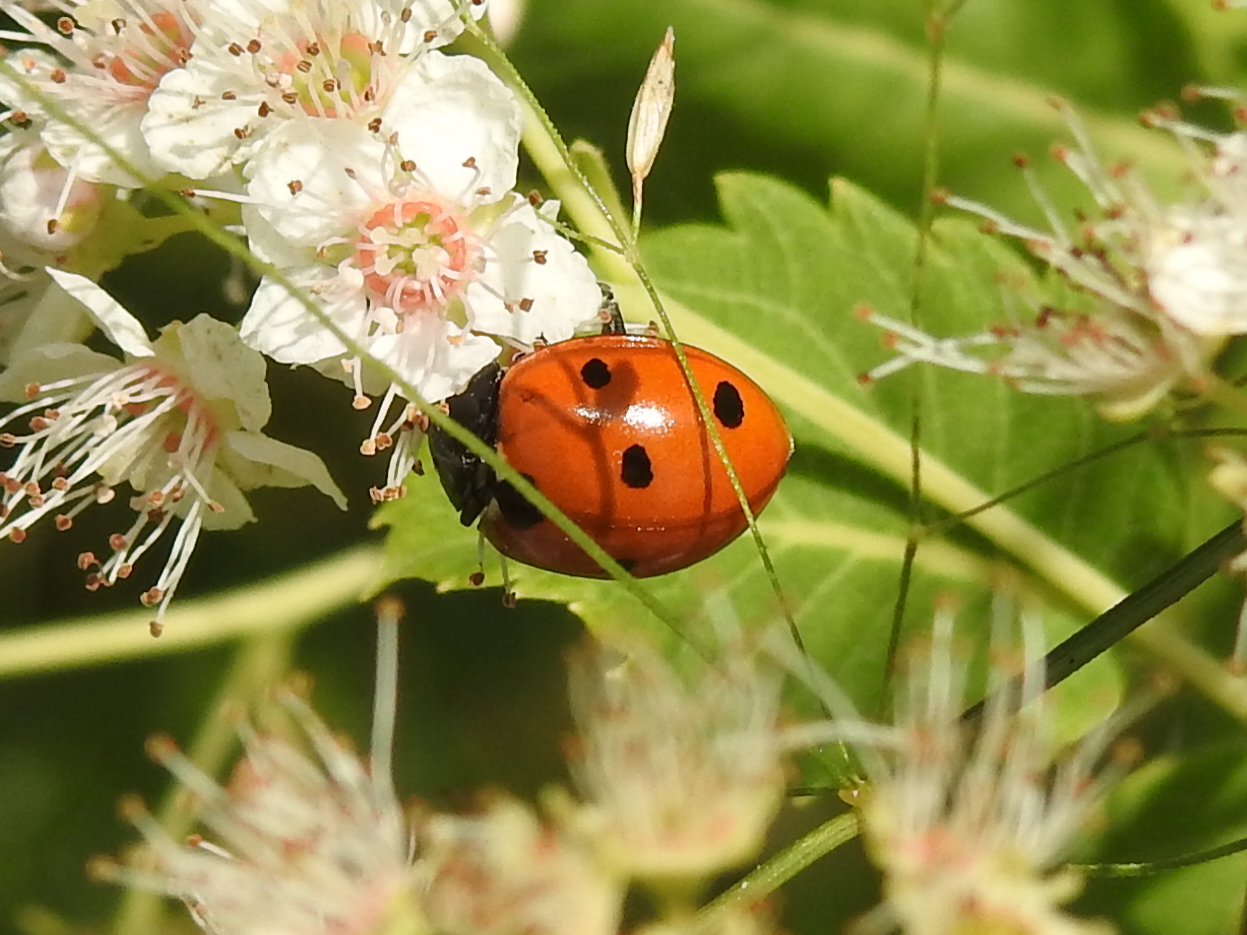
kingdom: Animalia
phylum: Arthropoda
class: Insecta
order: Coleoptera
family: Coccinellidae
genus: Coccinella
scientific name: Coccinella septempunctata
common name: Sevenspotted lady beetle
